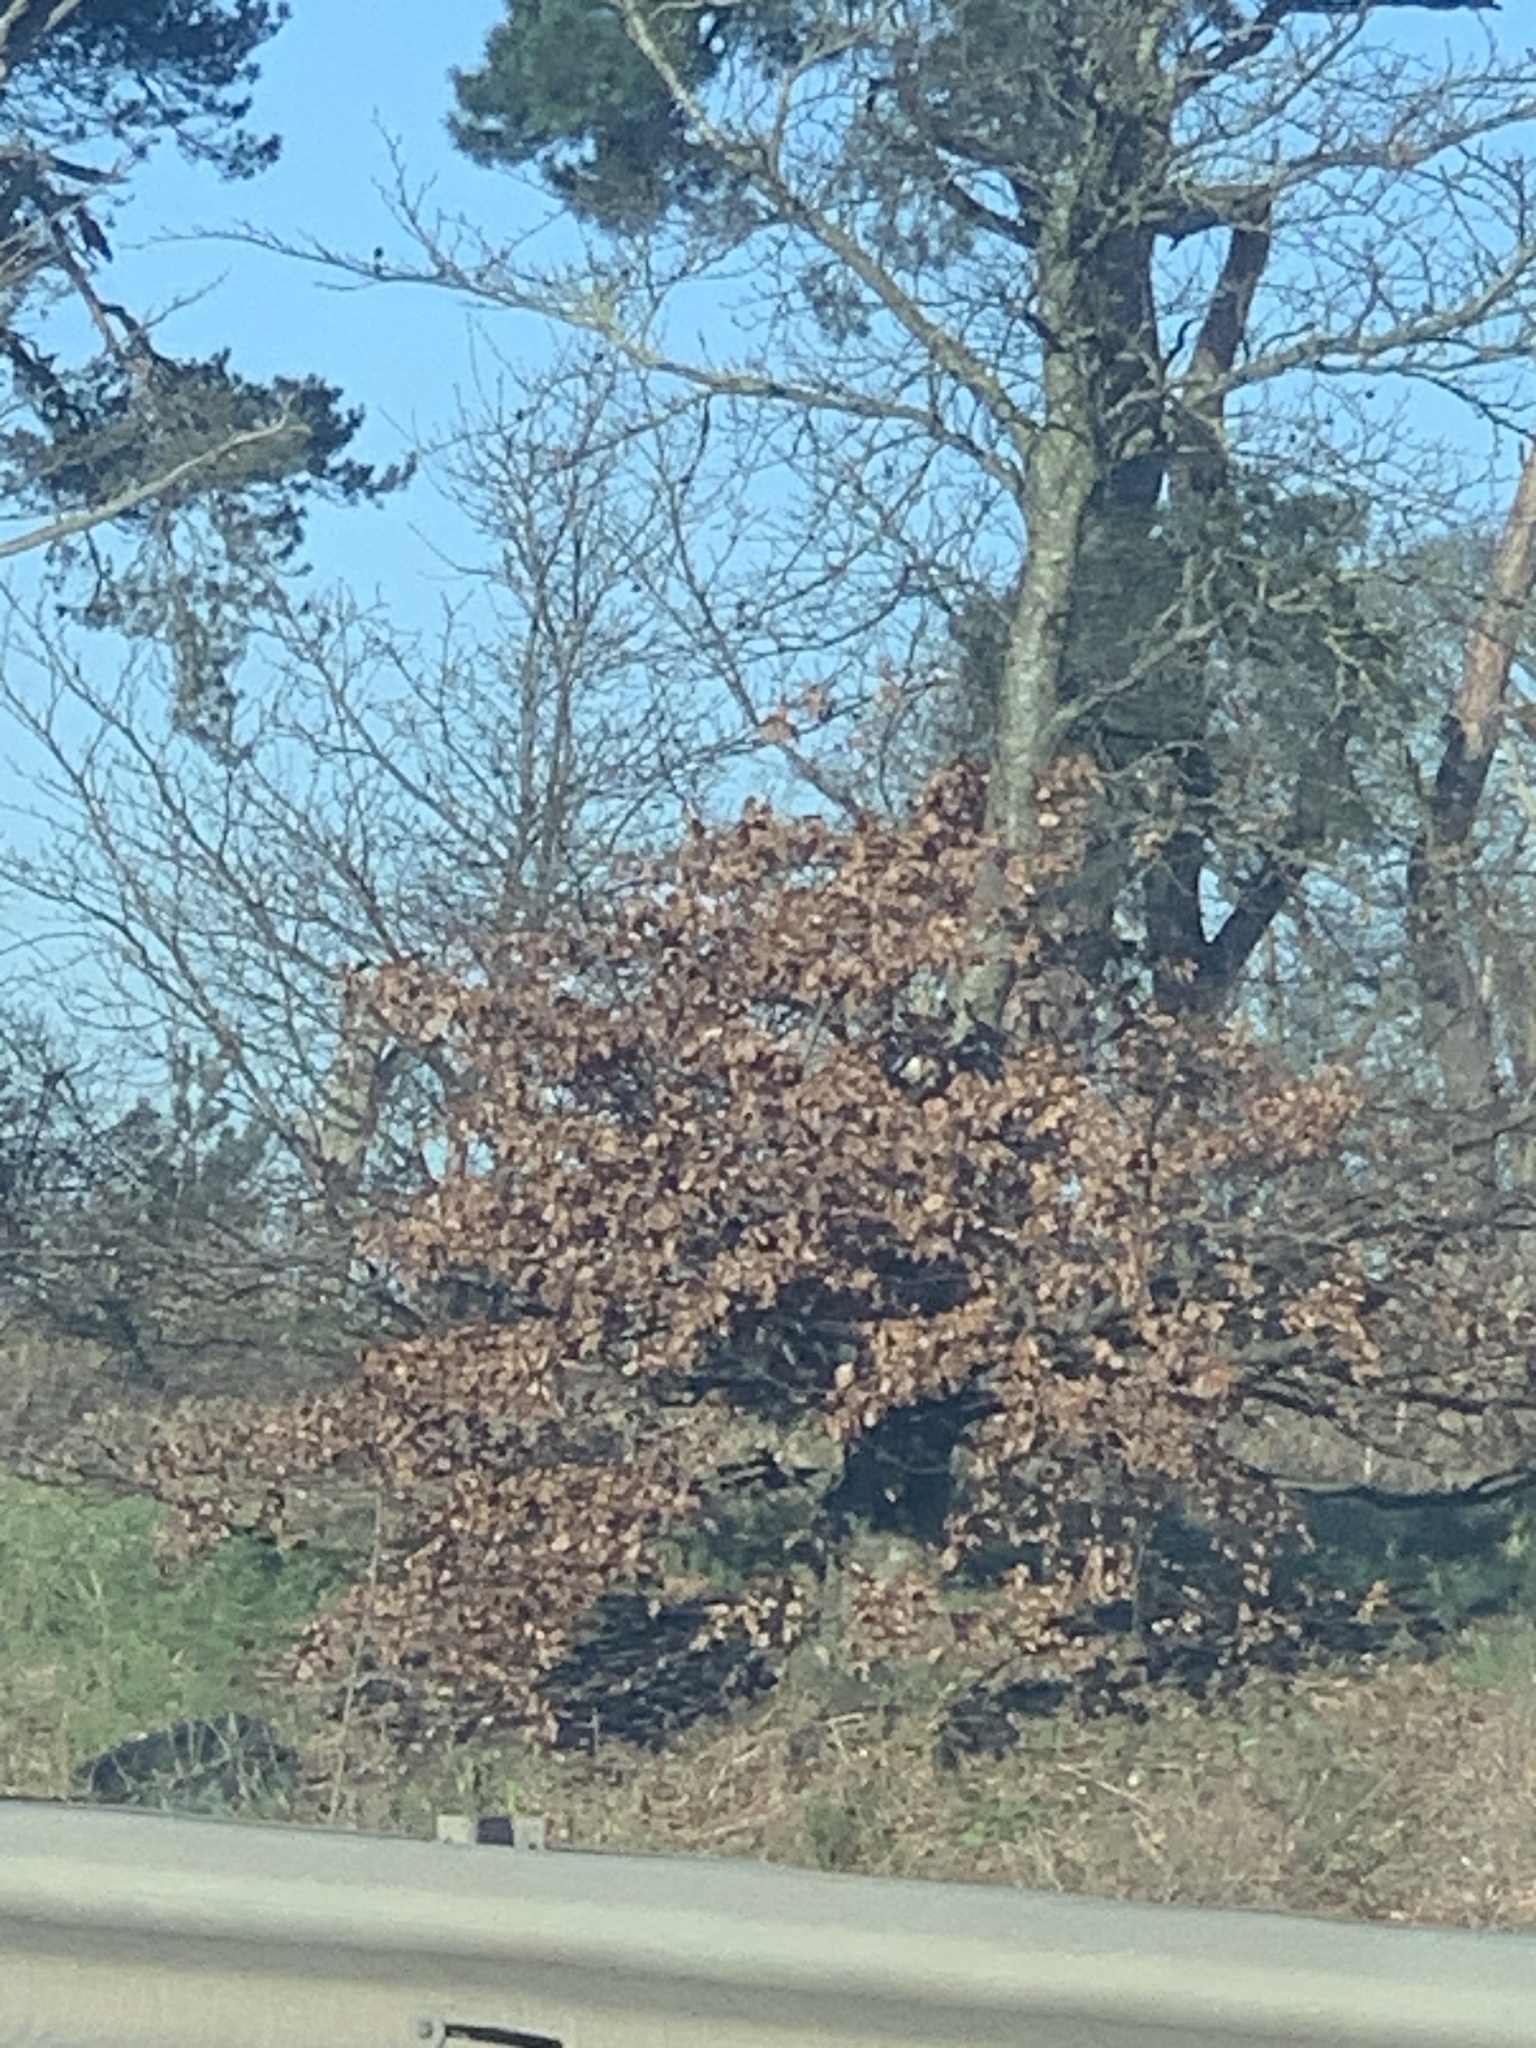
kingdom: Plantae
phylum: Tracheophyta
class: Magnoliopsida
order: Fagales
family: Fagaceae
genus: Fagus
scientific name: Fagus sylvatica
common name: Beech
